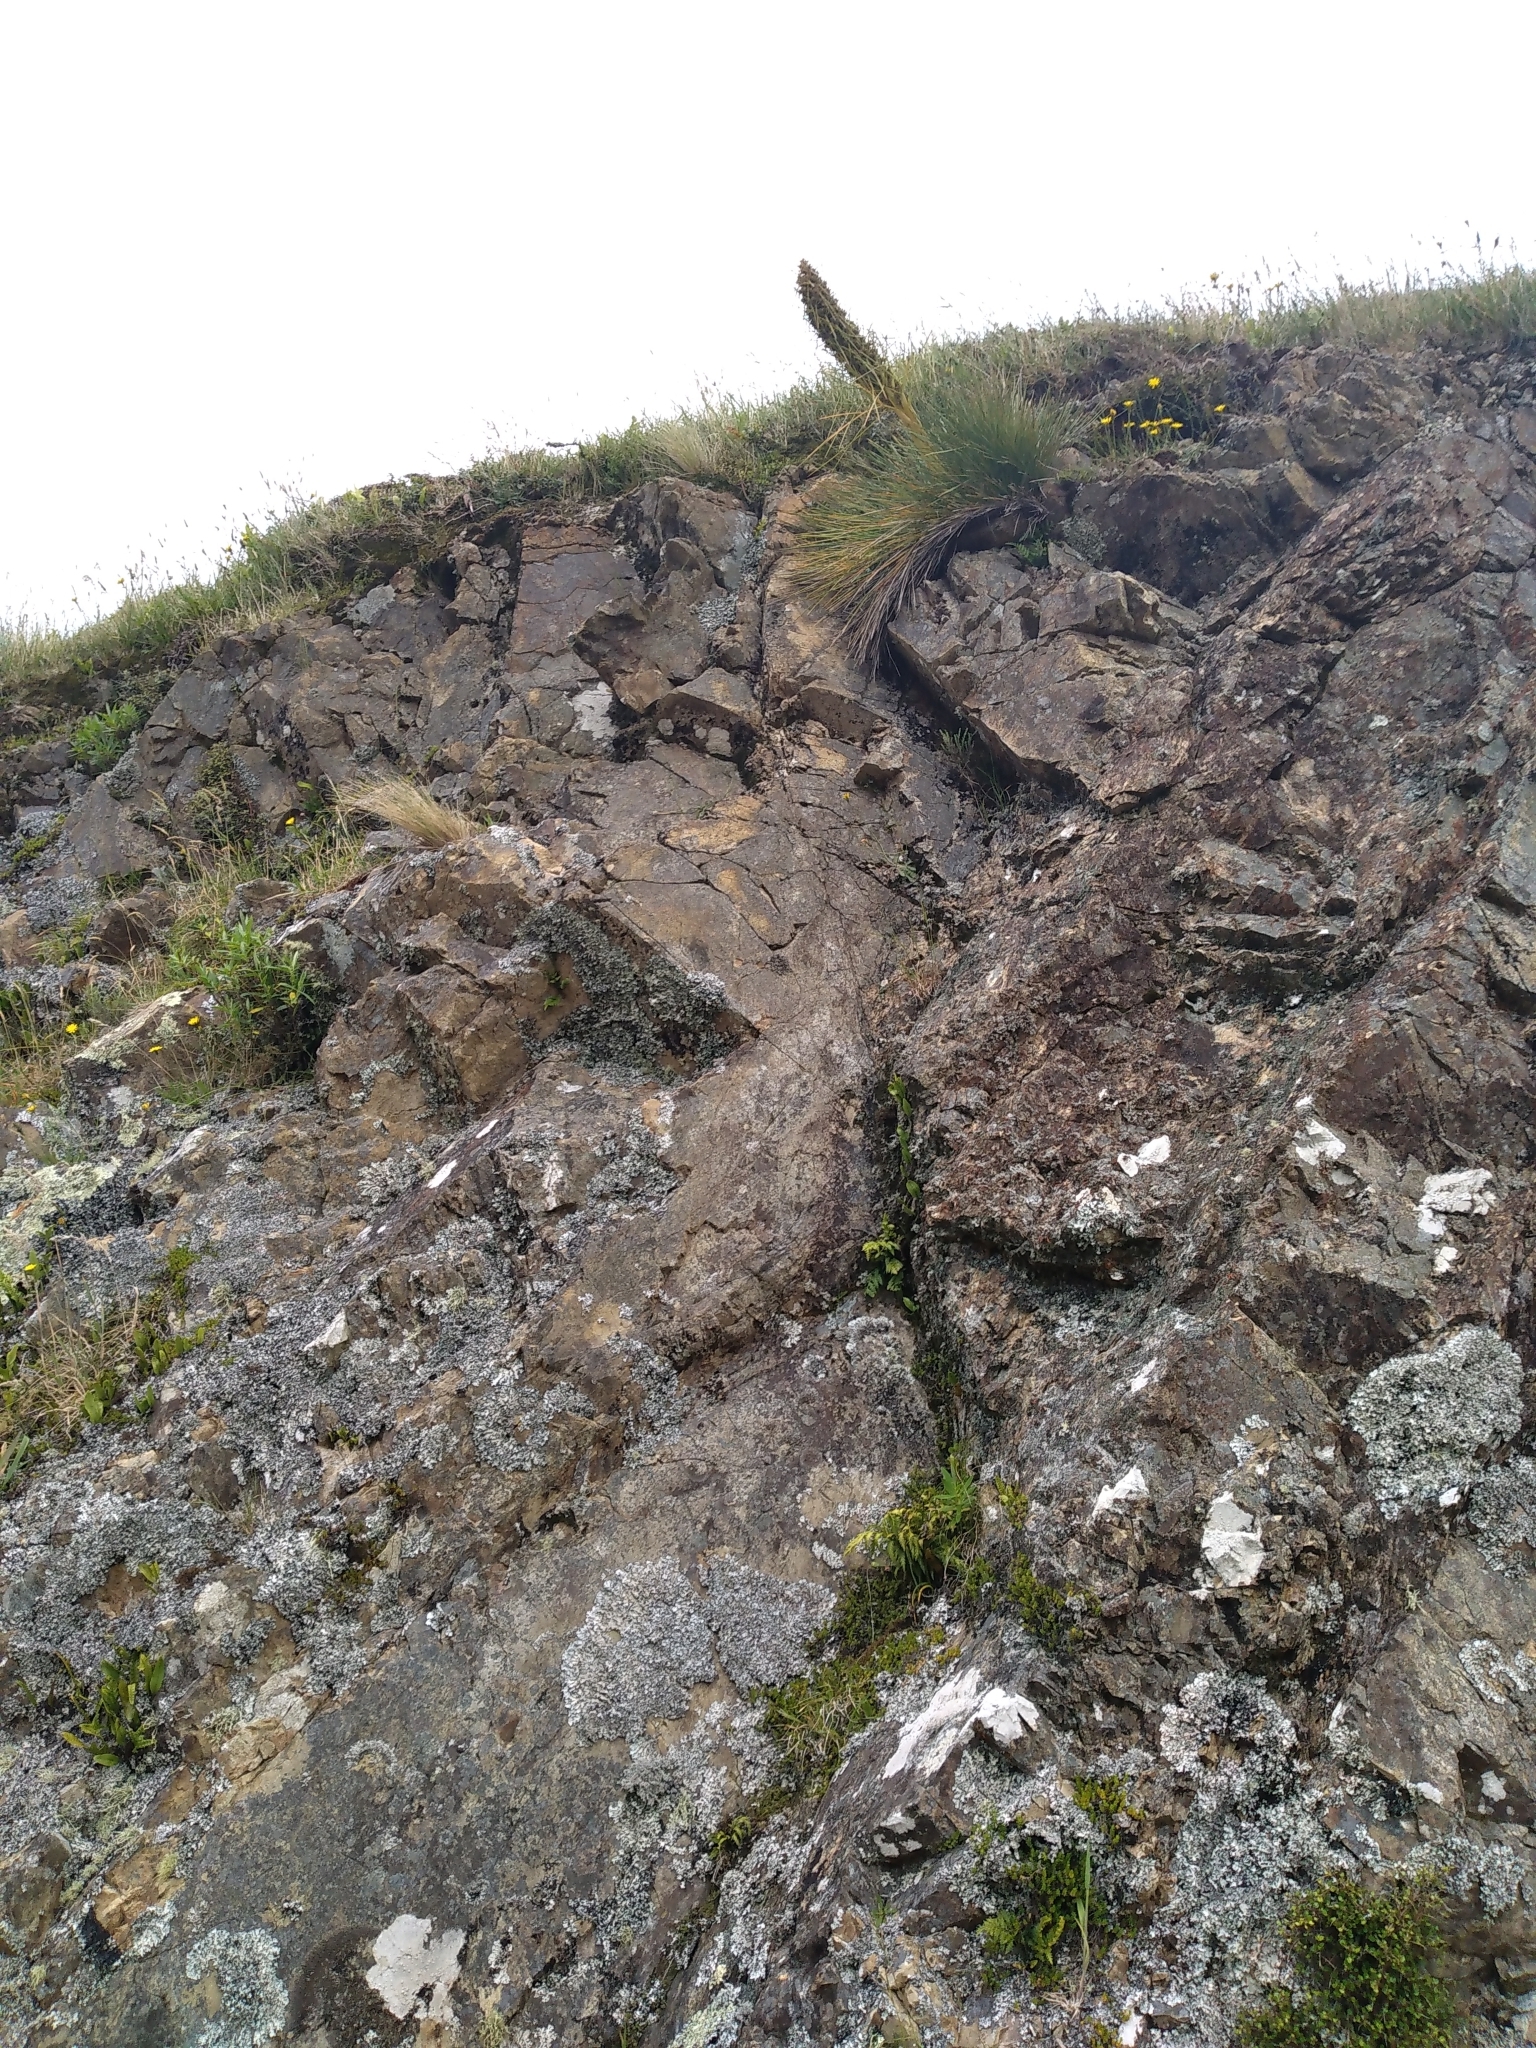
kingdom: Plantae
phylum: Tracheophyta
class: Magnoliopsida
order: Apiales
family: Apiaceae
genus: Aciphylla
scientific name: Aciphylla squarrosa
